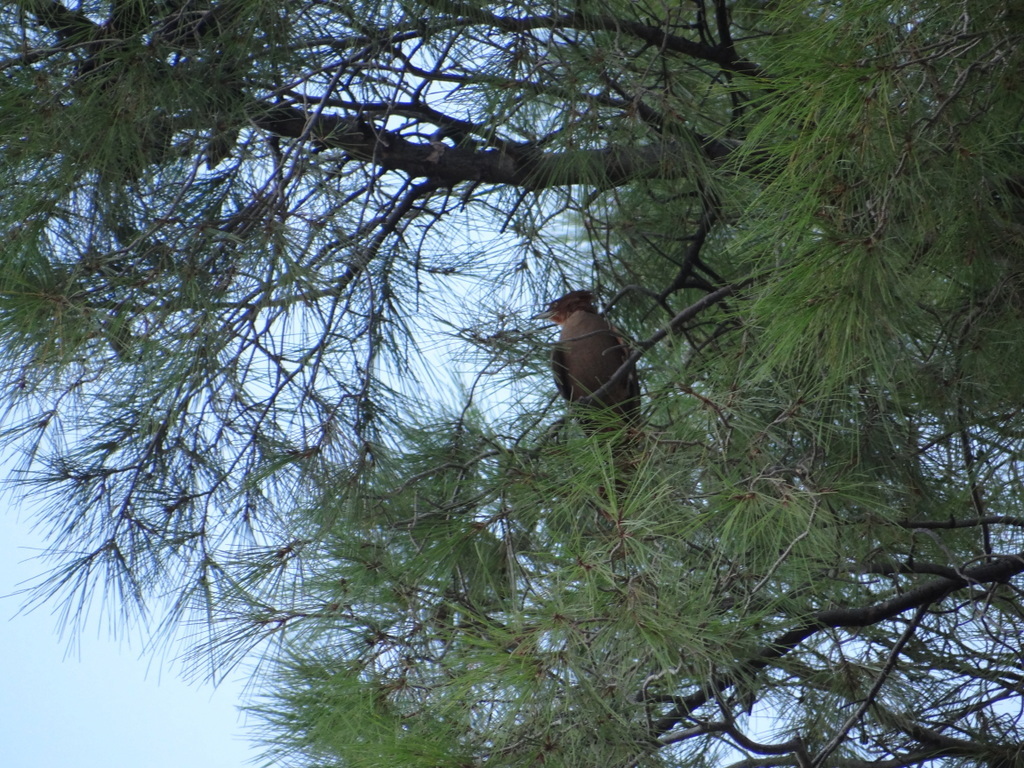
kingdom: Animalia
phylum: Chordata
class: Aves
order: Passeriformes
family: Furnariidae
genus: Pseudoseisura
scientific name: Pseudoseisura lophotes
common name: Brown cacholote
